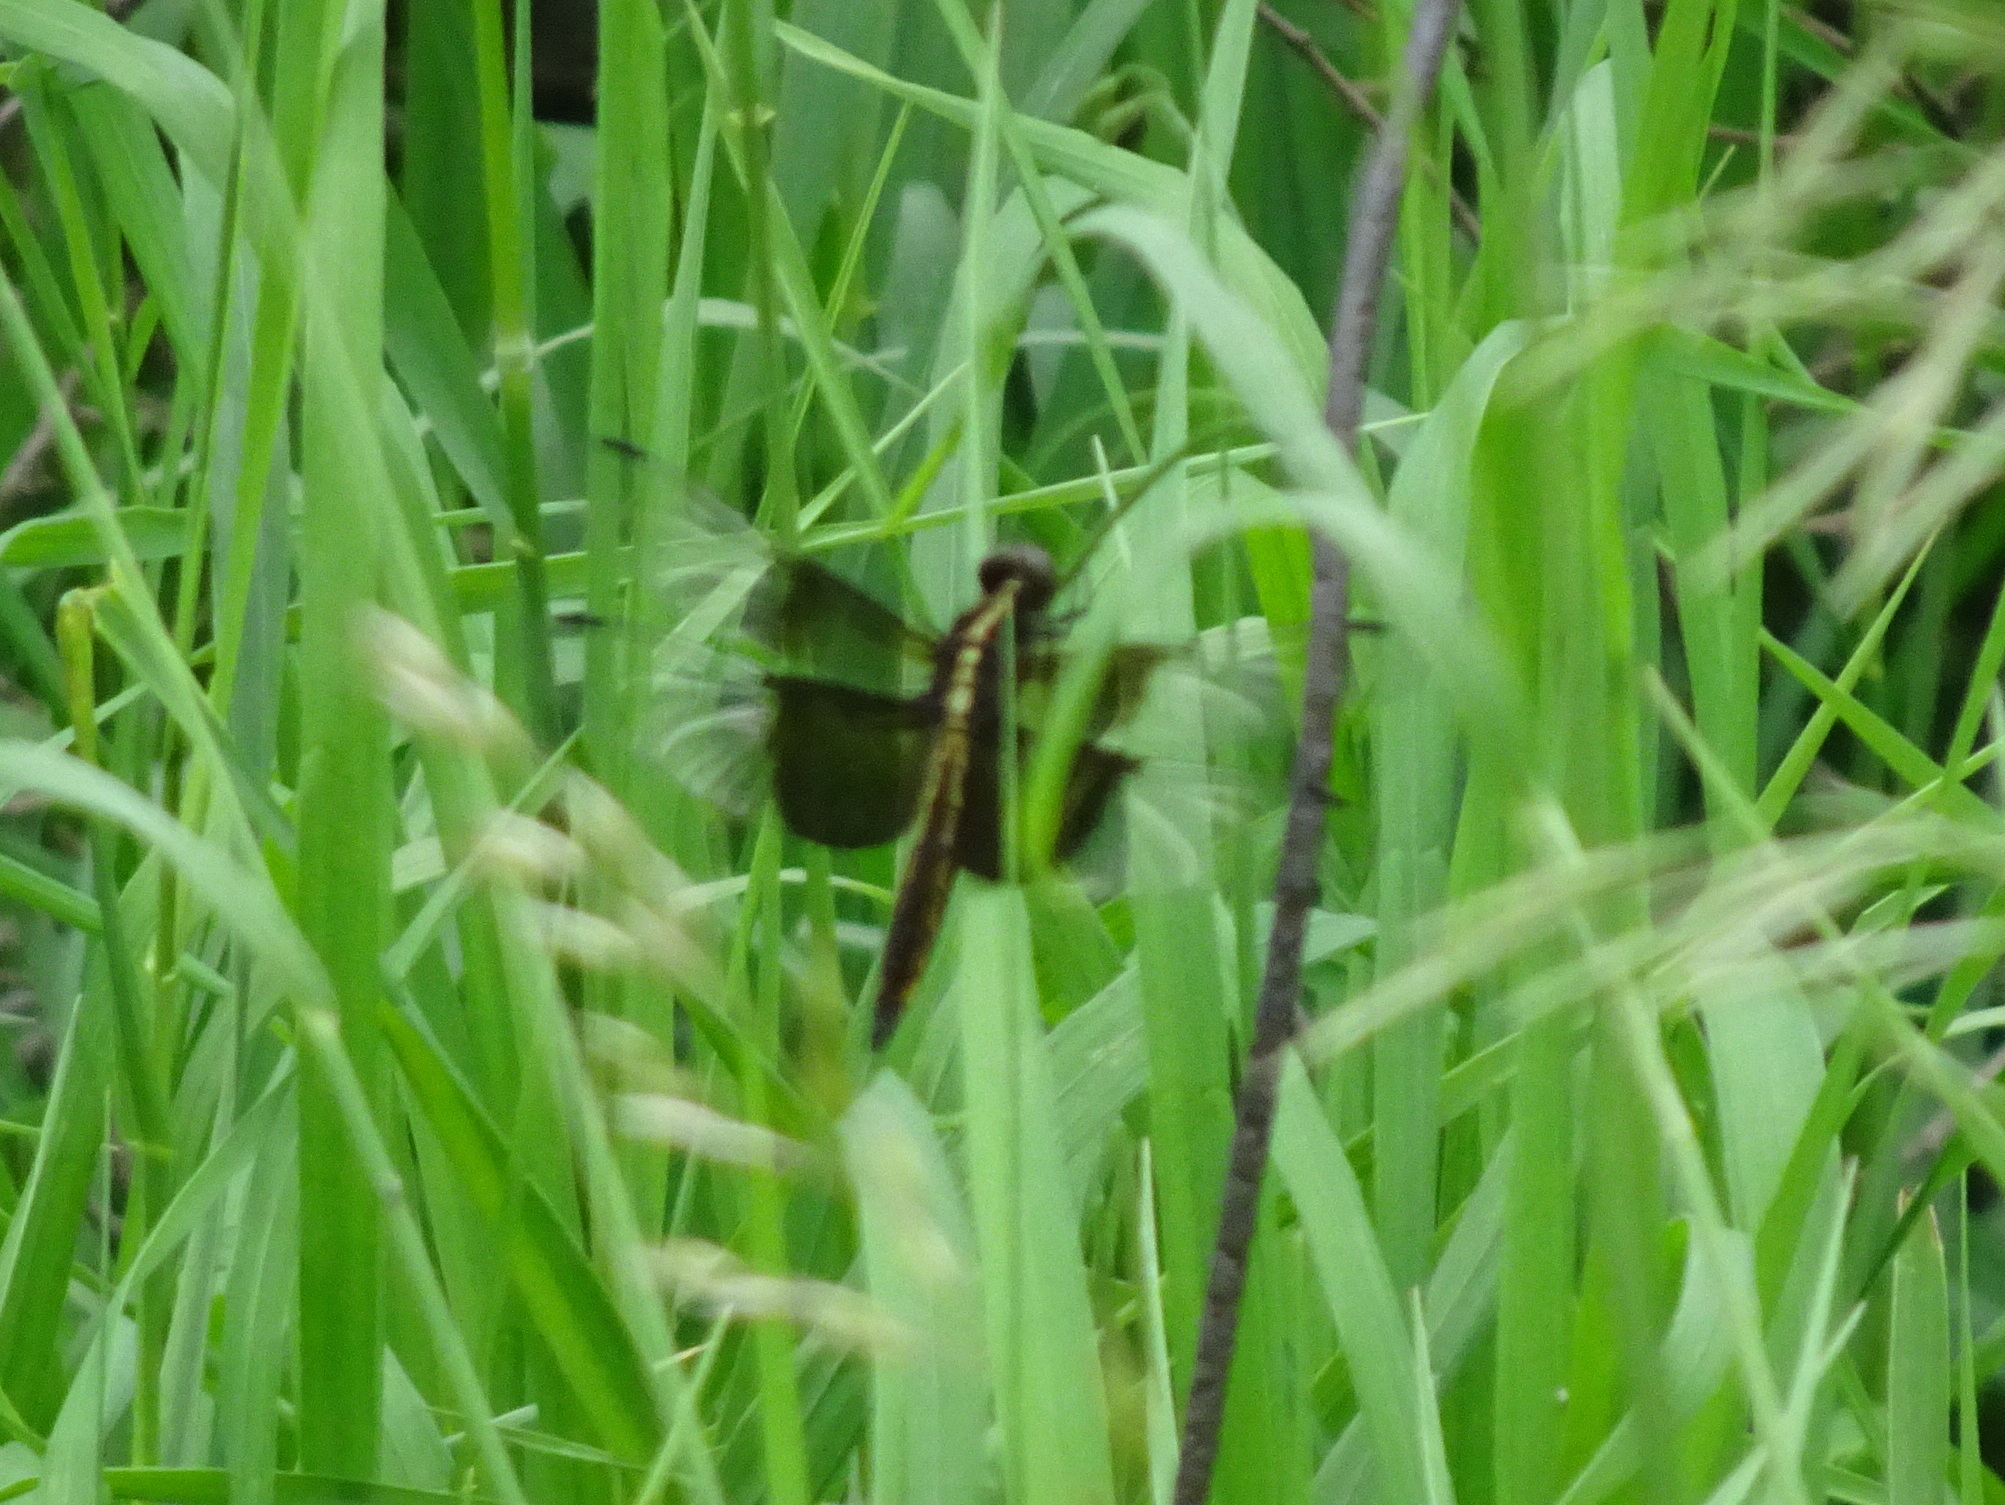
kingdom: Animalia
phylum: Arthropoda
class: Insecta
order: Odonata
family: Libellulidae
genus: Libellula
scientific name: Libellula luctuosa
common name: Widow skimmer
